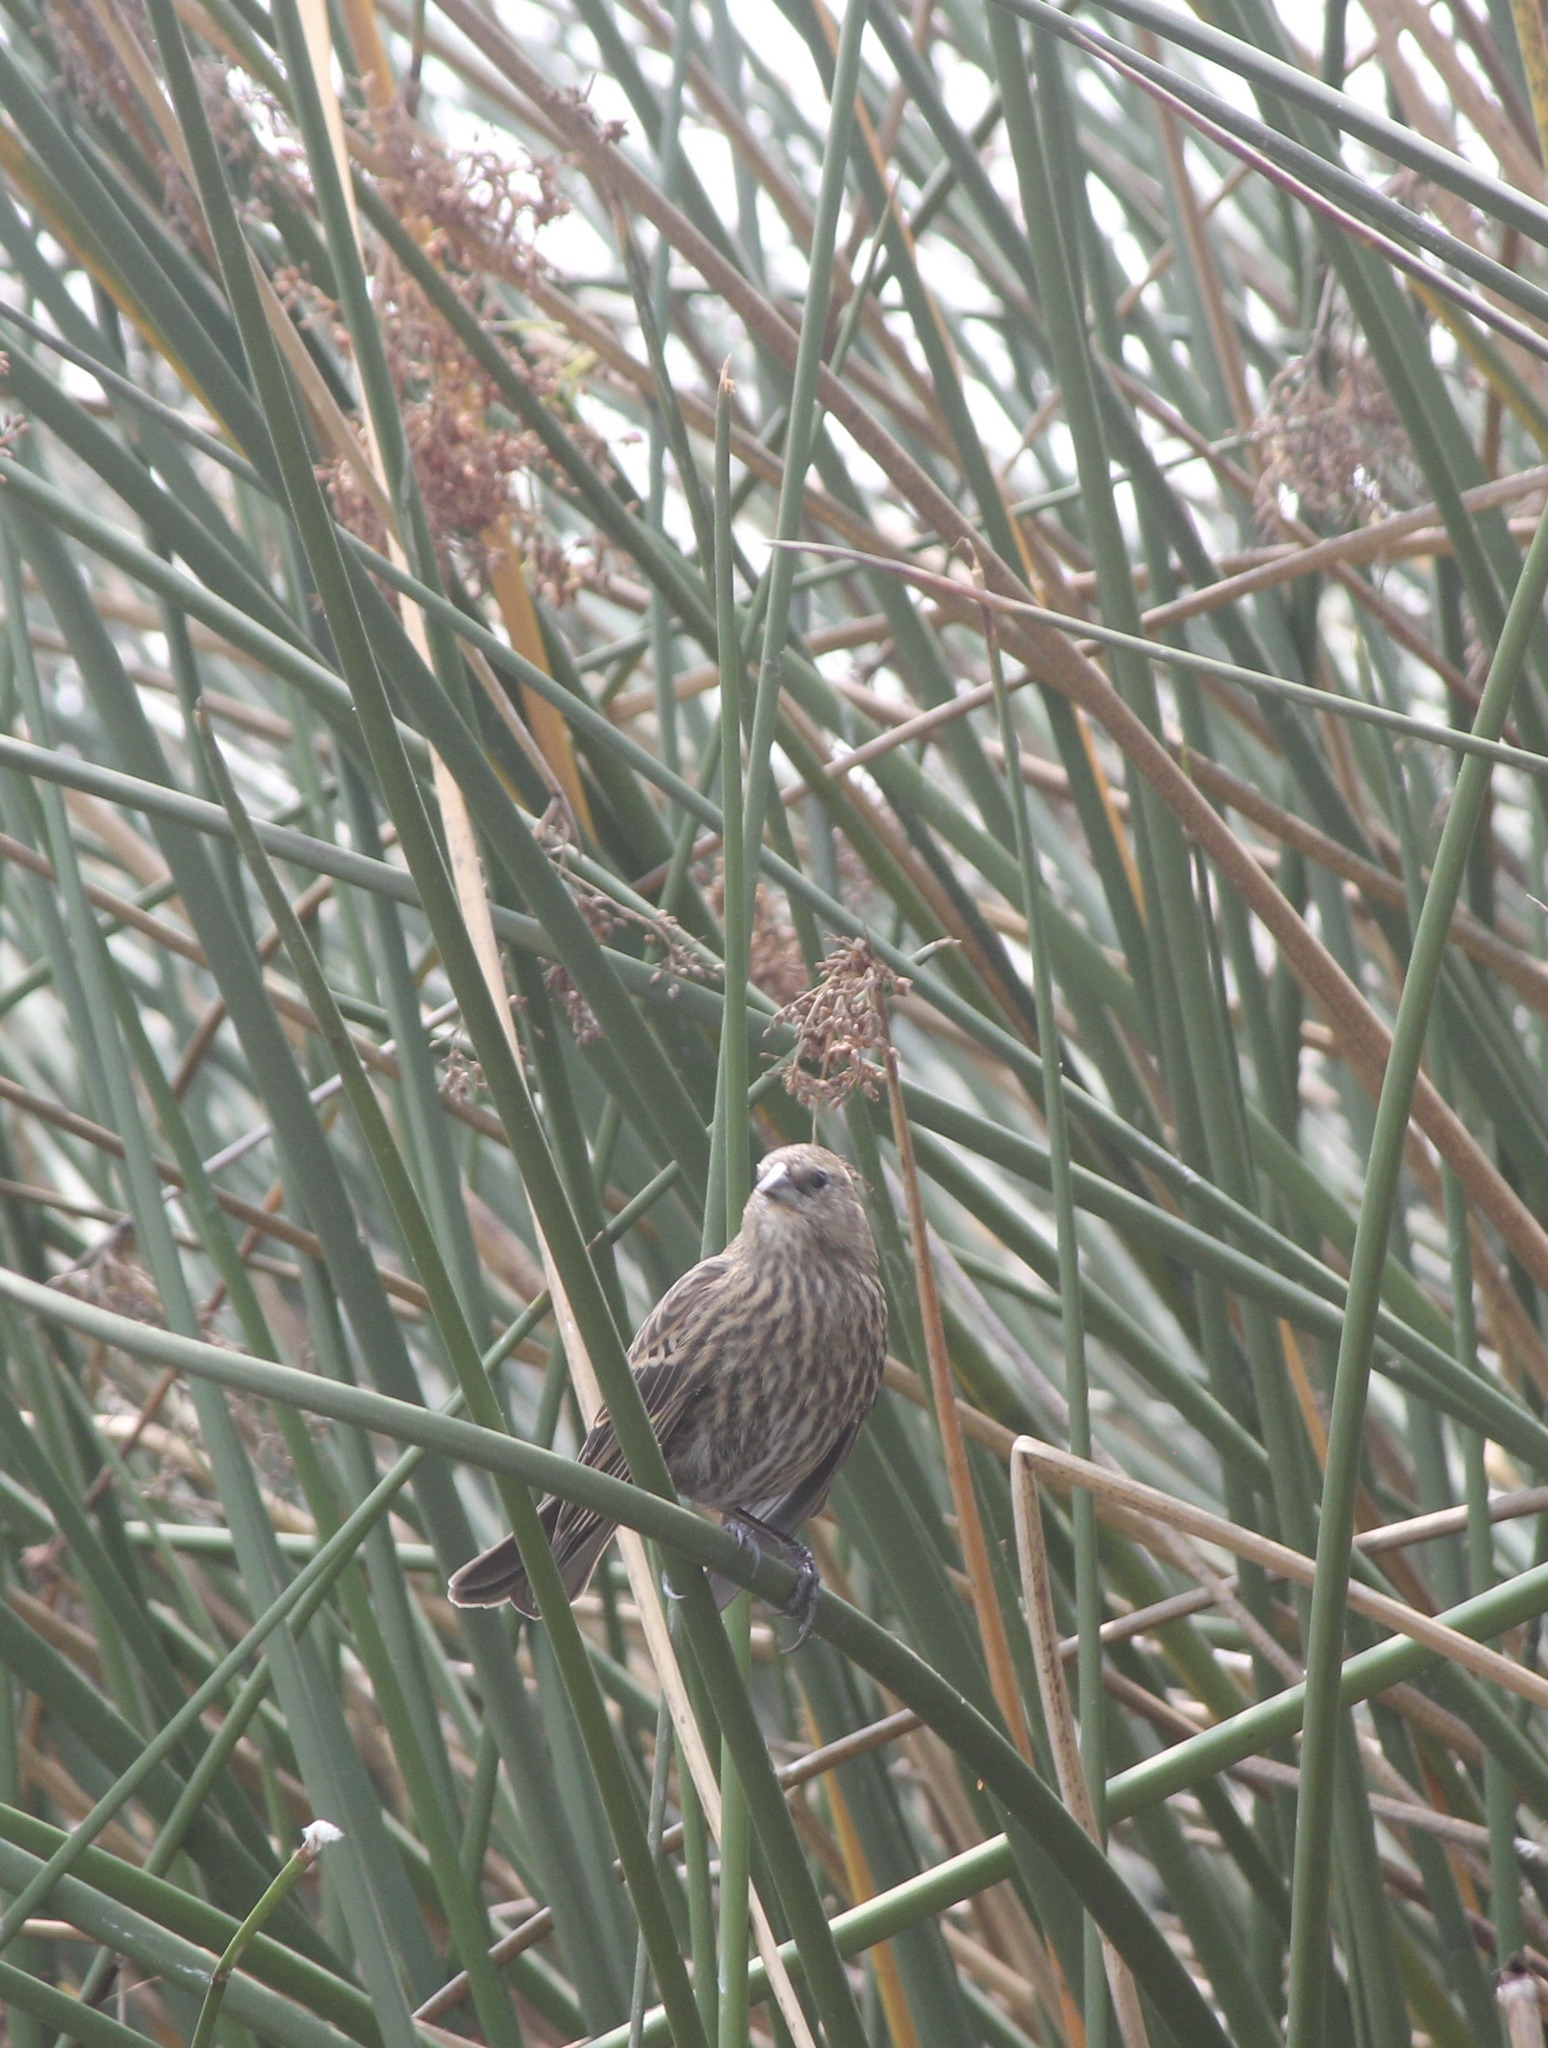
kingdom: Animalia
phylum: Chordata
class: Aves
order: Passeriformes
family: Icteridae
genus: Agelaius
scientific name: Agelaius phoeniceus
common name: Red-winged blackbird
